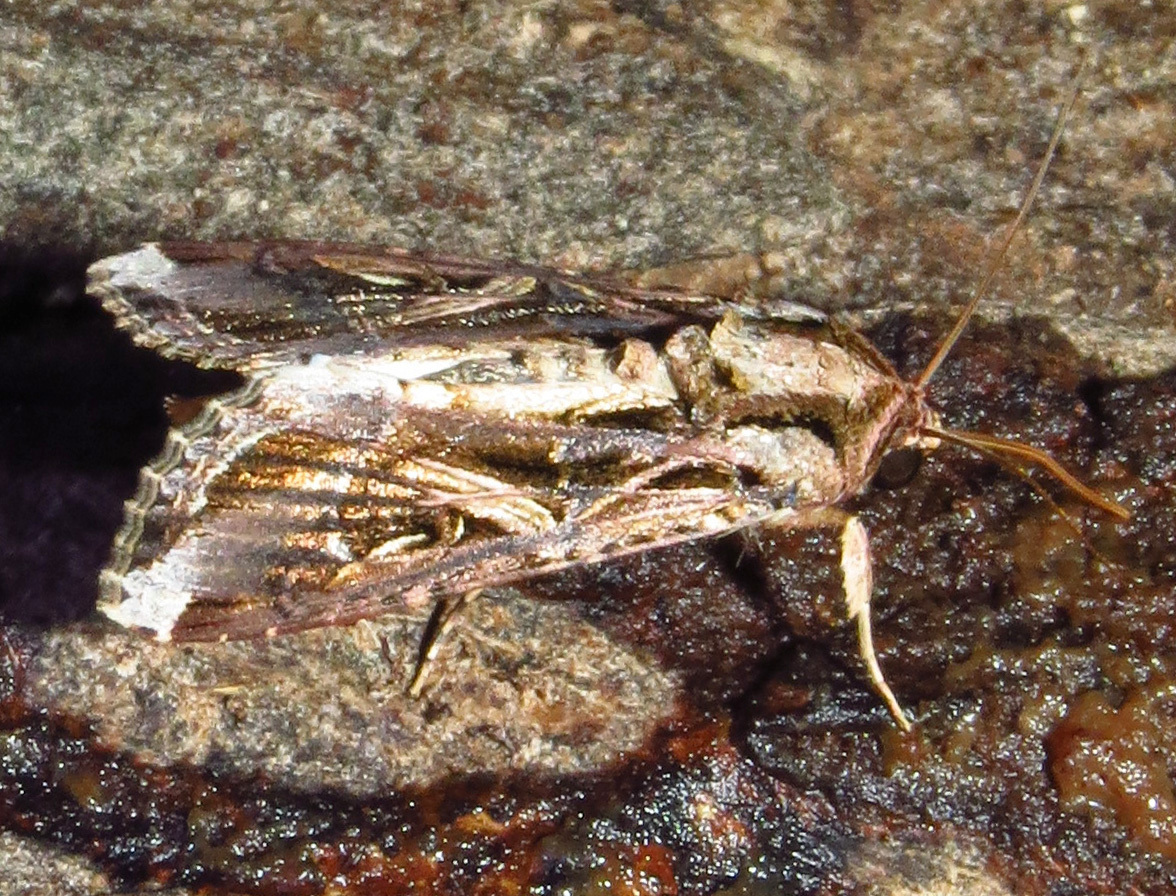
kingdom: Animalia
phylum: Arthropoda
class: Insecta
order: Lepidoptera
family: Noctuidae
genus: Spodoptera
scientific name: Spodoptera dolichos
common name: Sweetpotato armyworm
